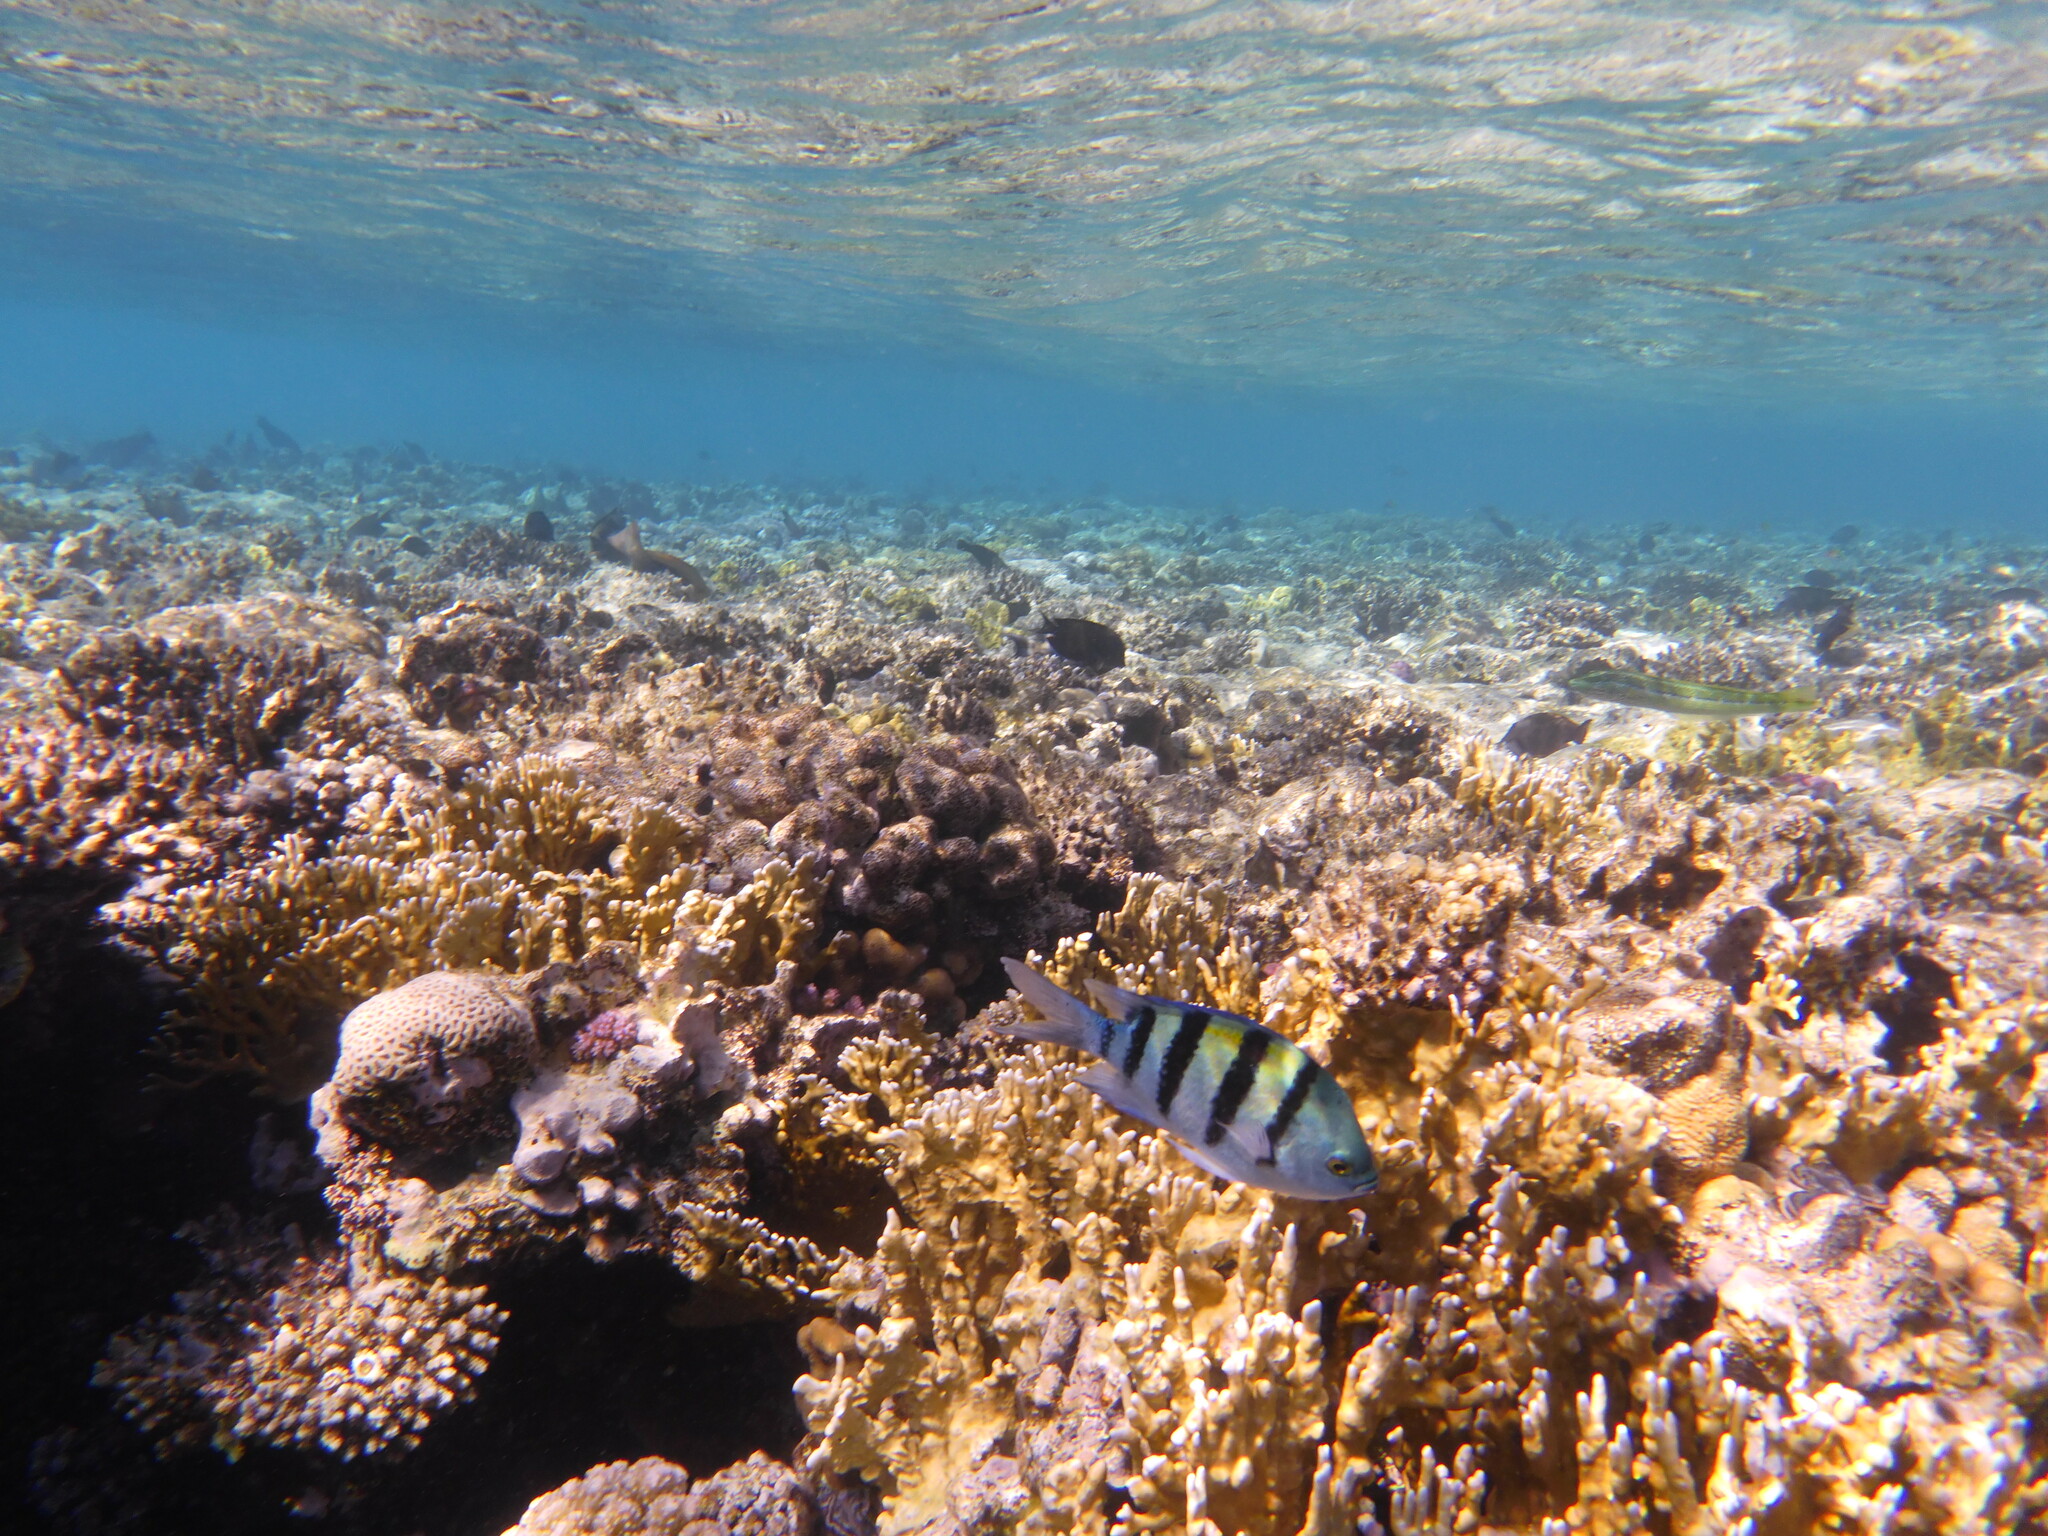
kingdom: Animalia
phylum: Chordata
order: Perciformes
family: Pomacentridae
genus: Abudefduf
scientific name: Abudefduf vaigiensis
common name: Indo-pacific sergeant
